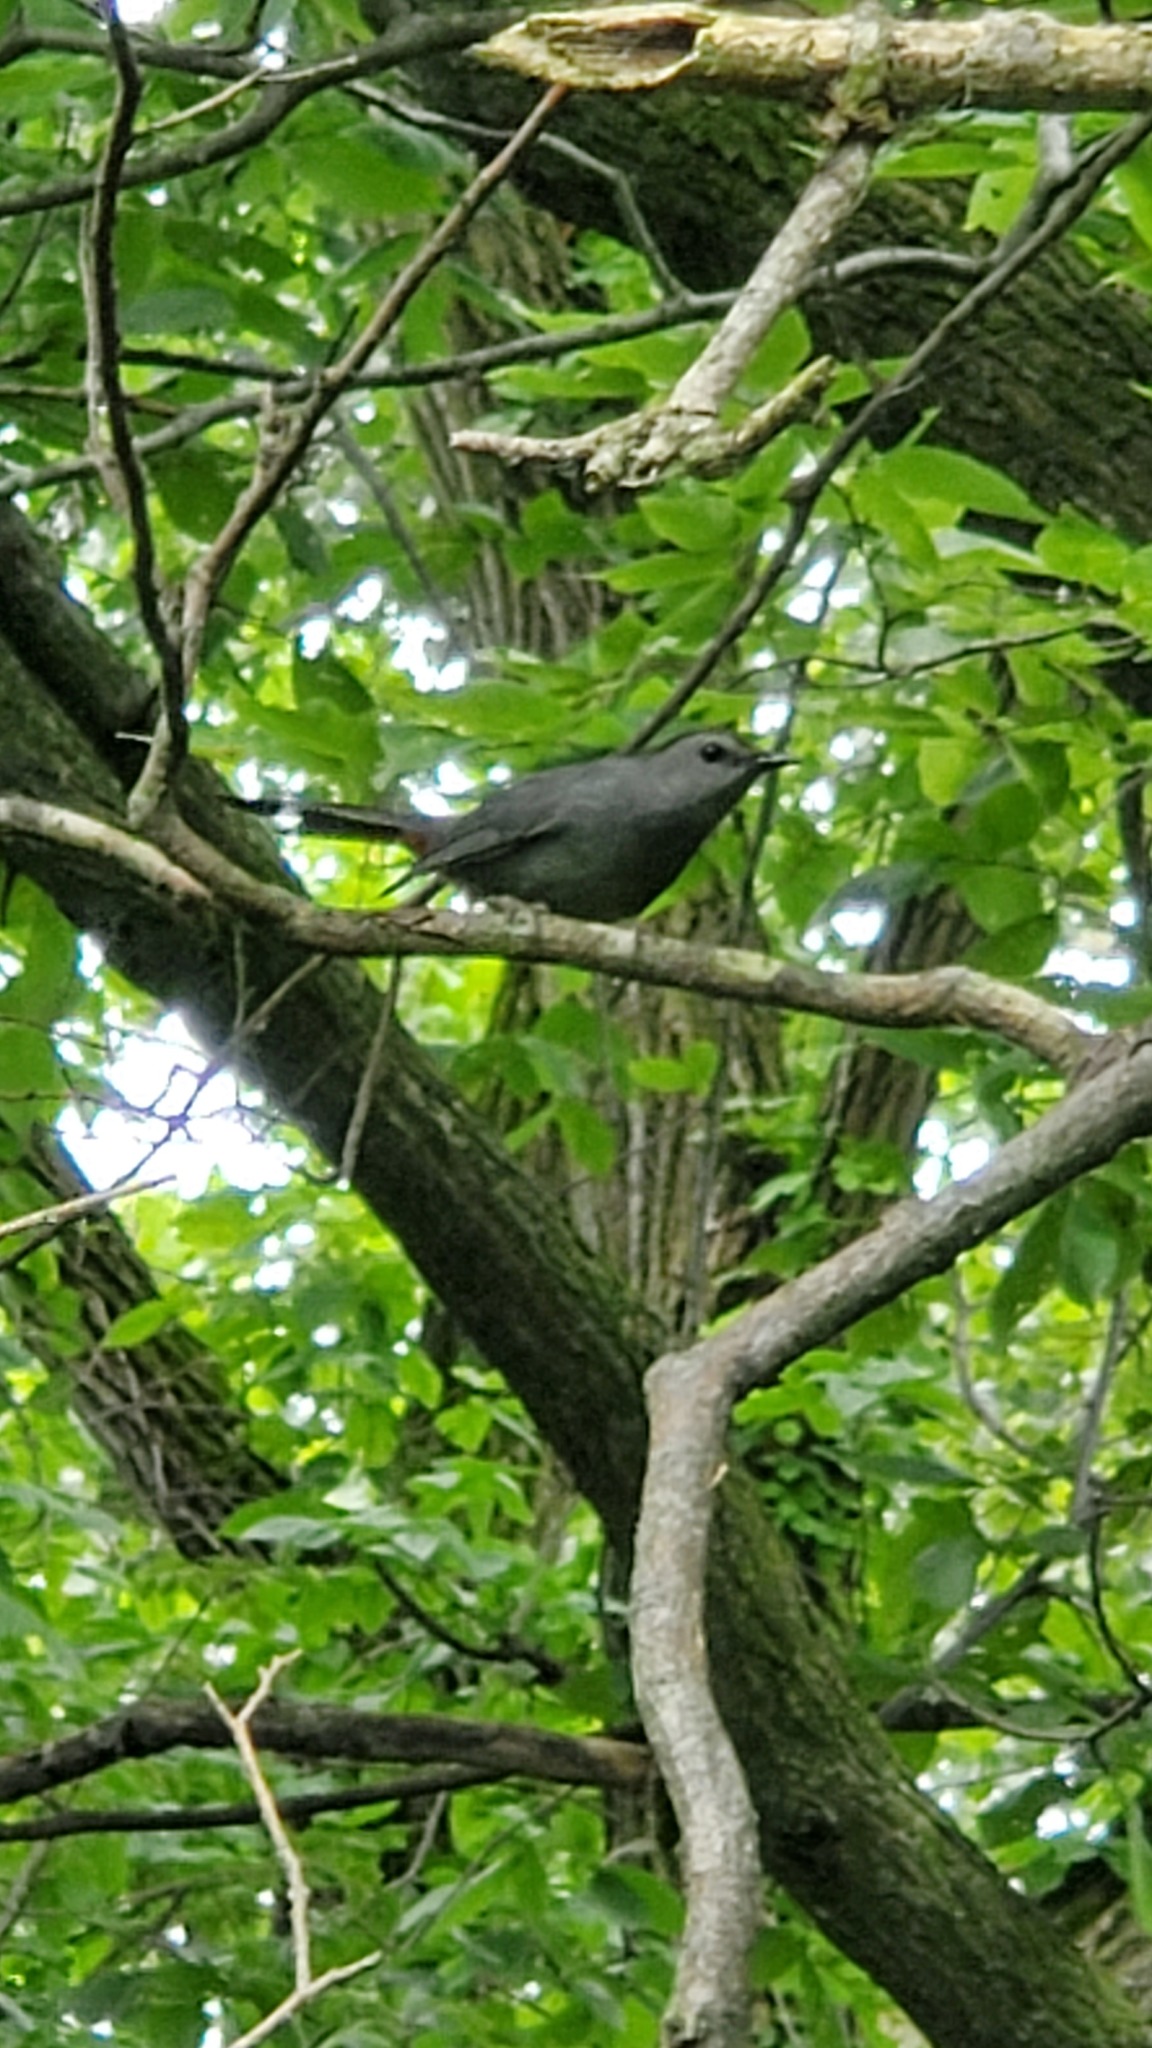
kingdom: Animalia
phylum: Chordata
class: Aves
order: Passeriformes
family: Mimidae
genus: Dumetella
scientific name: Dumetella carolinensis
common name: Gray catbird
